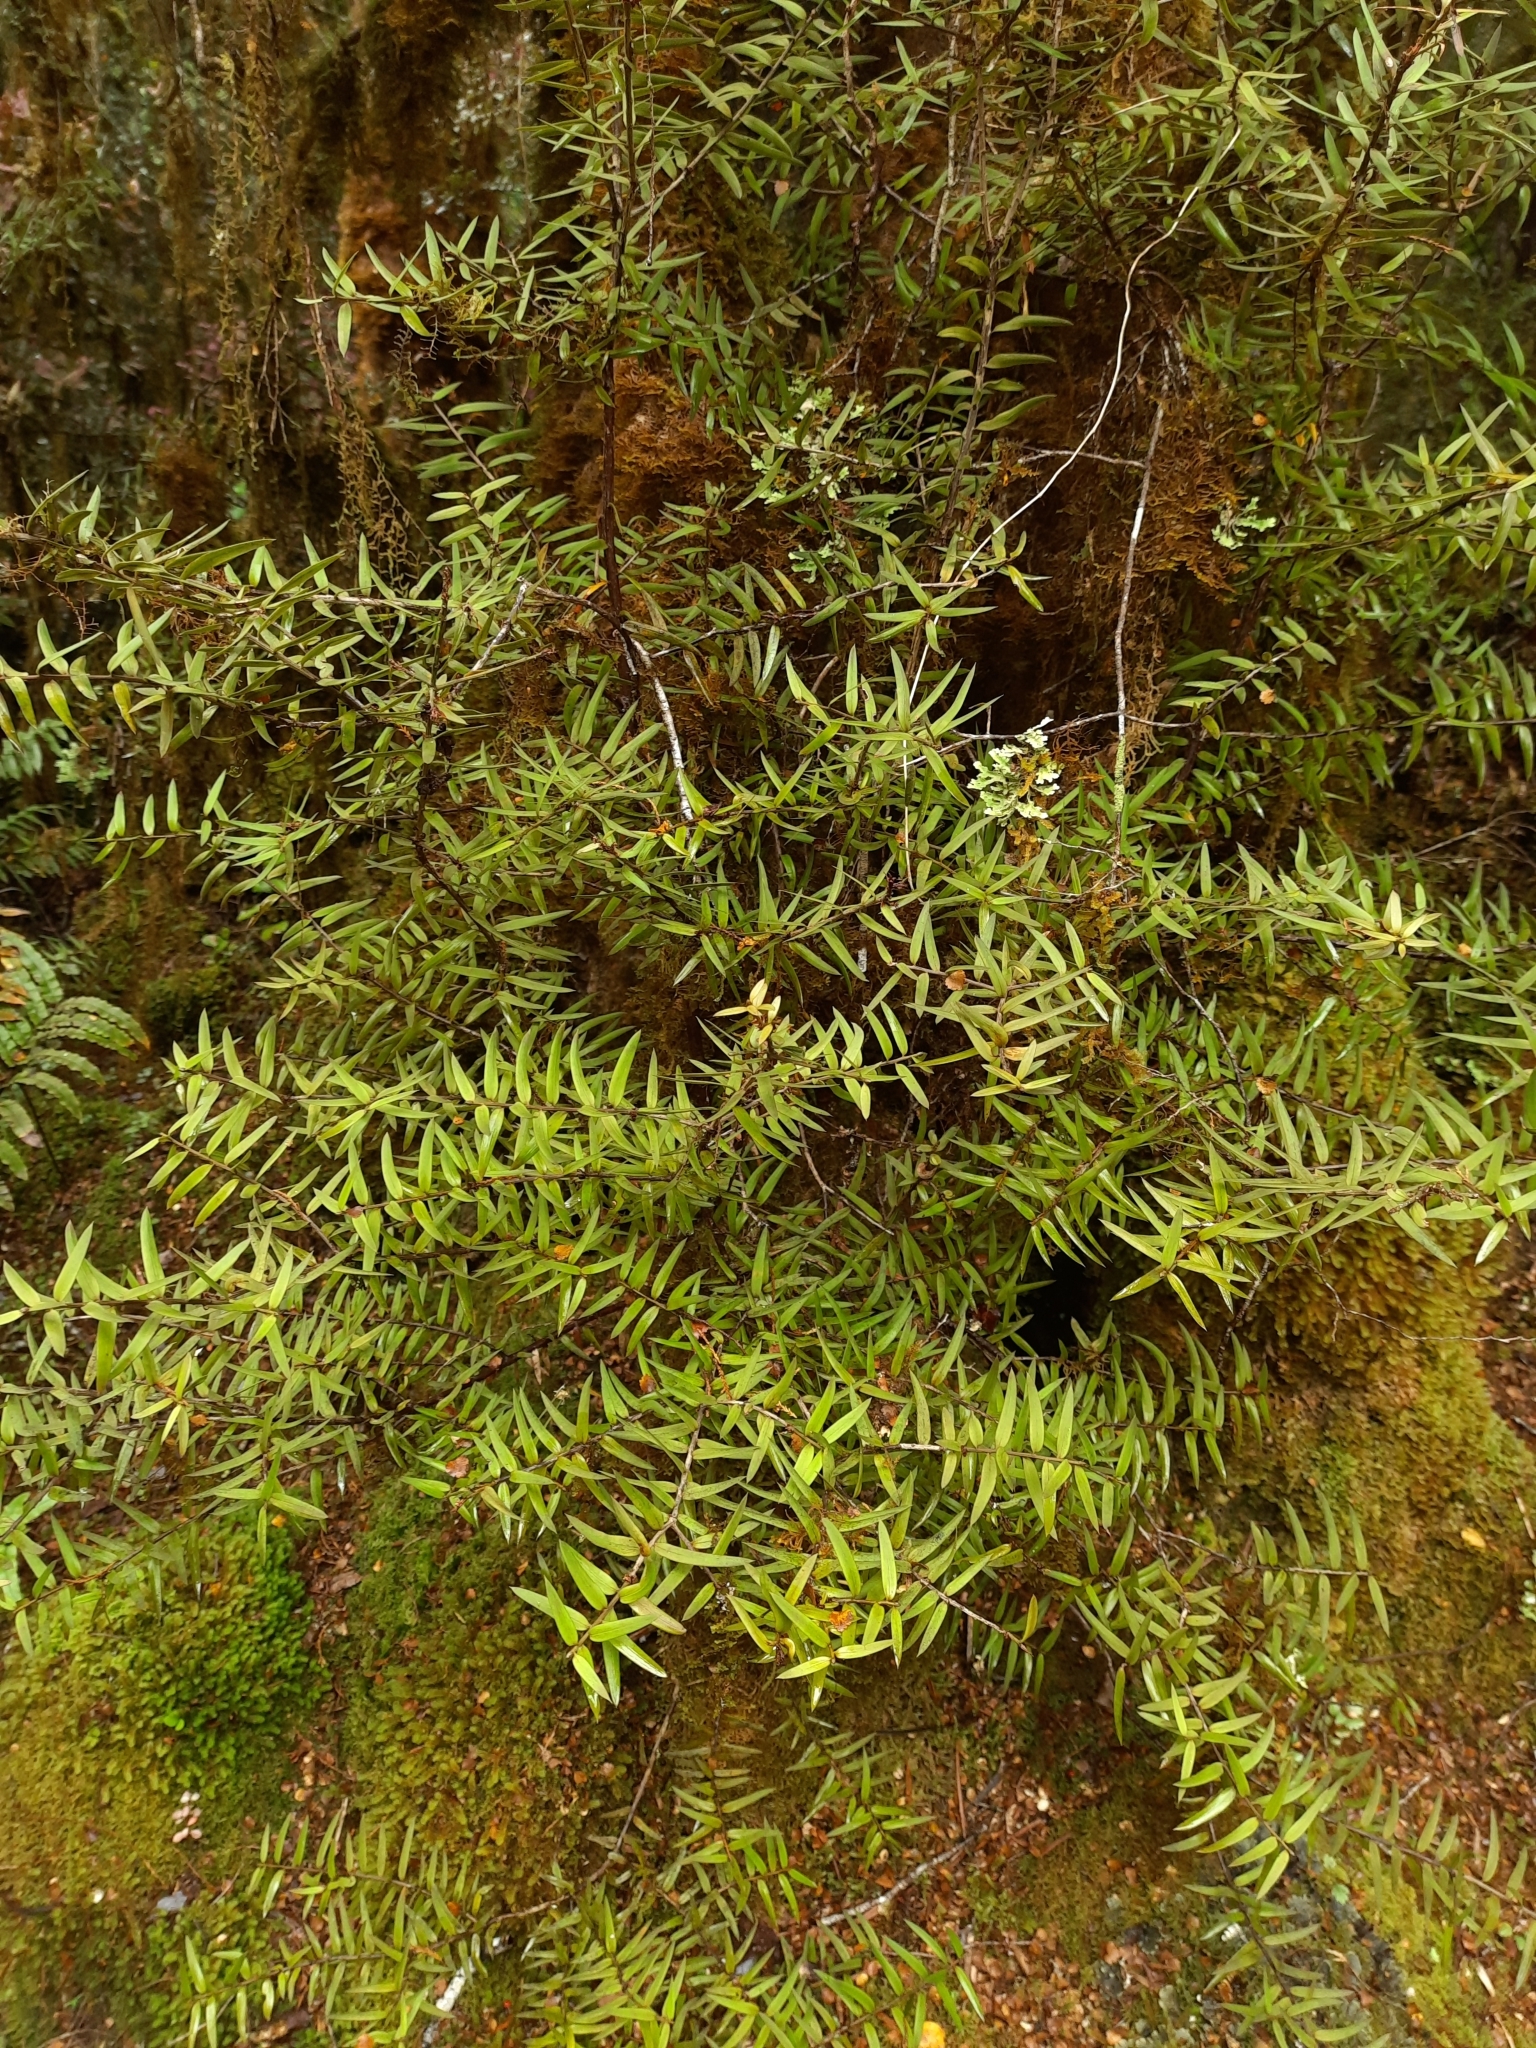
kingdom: Plantae
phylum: Tracheophyta
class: Pinopsida
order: Pinales
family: Podocarpaceae
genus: Podocarpus
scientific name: Podocarpus laetus
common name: Hall's totara
